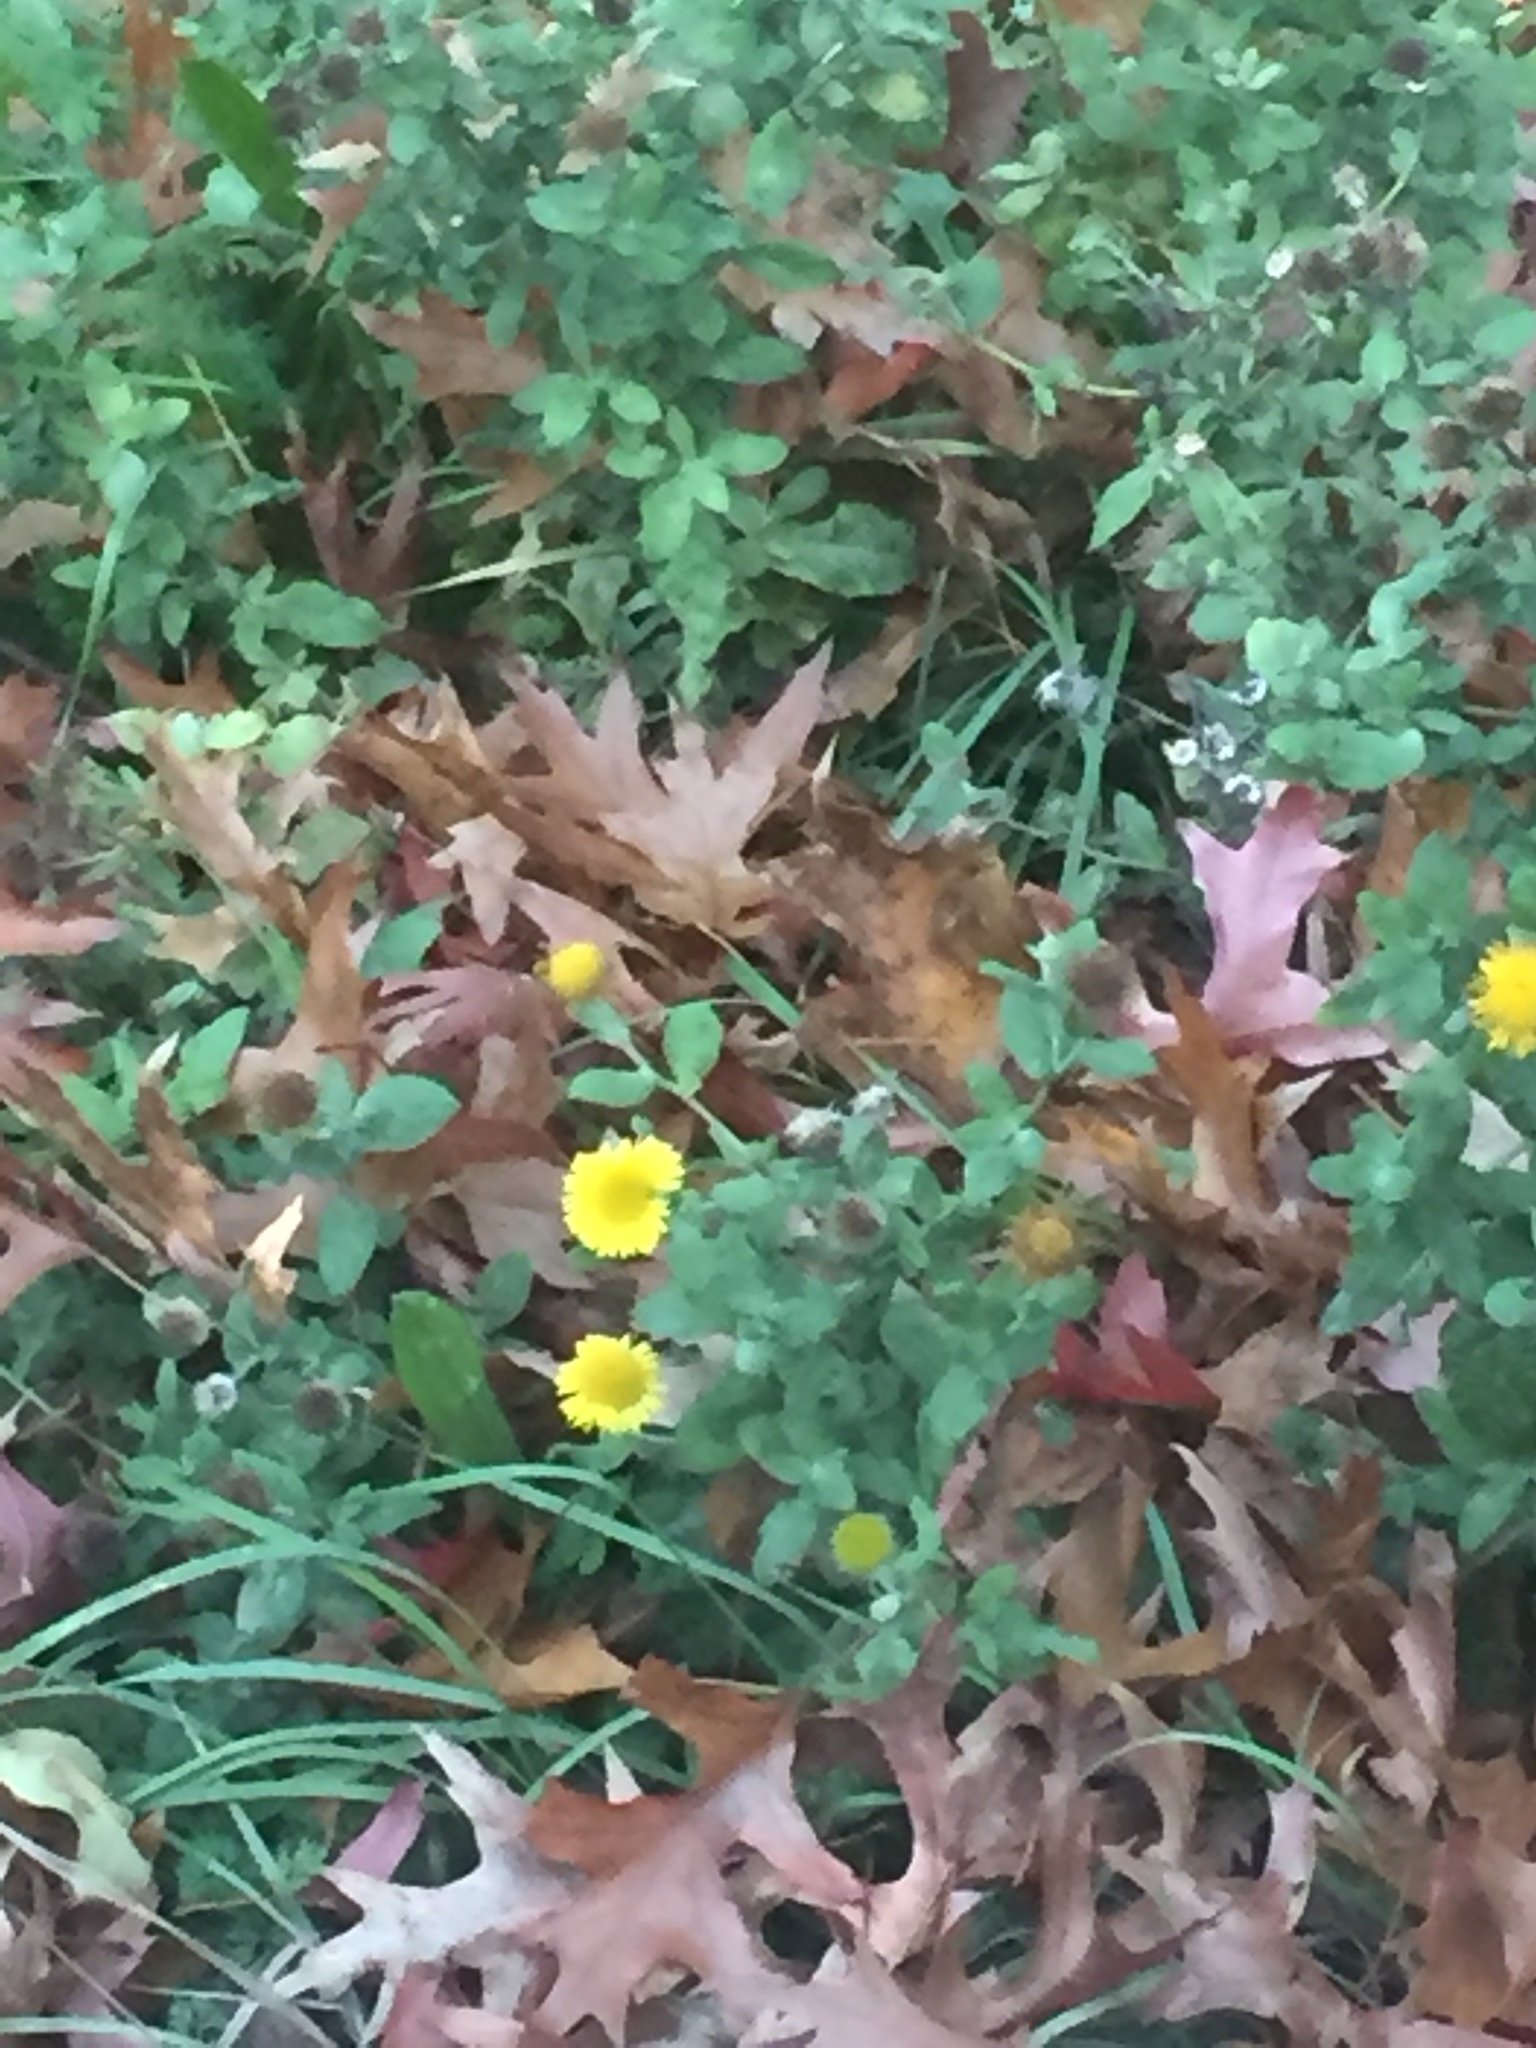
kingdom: Plantae
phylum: Tracheophyta
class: Magnoliopsida
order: Asterales
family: Asteraceae
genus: Pulicaria
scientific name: Pulicaria dysenterica
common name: Common fleabane
